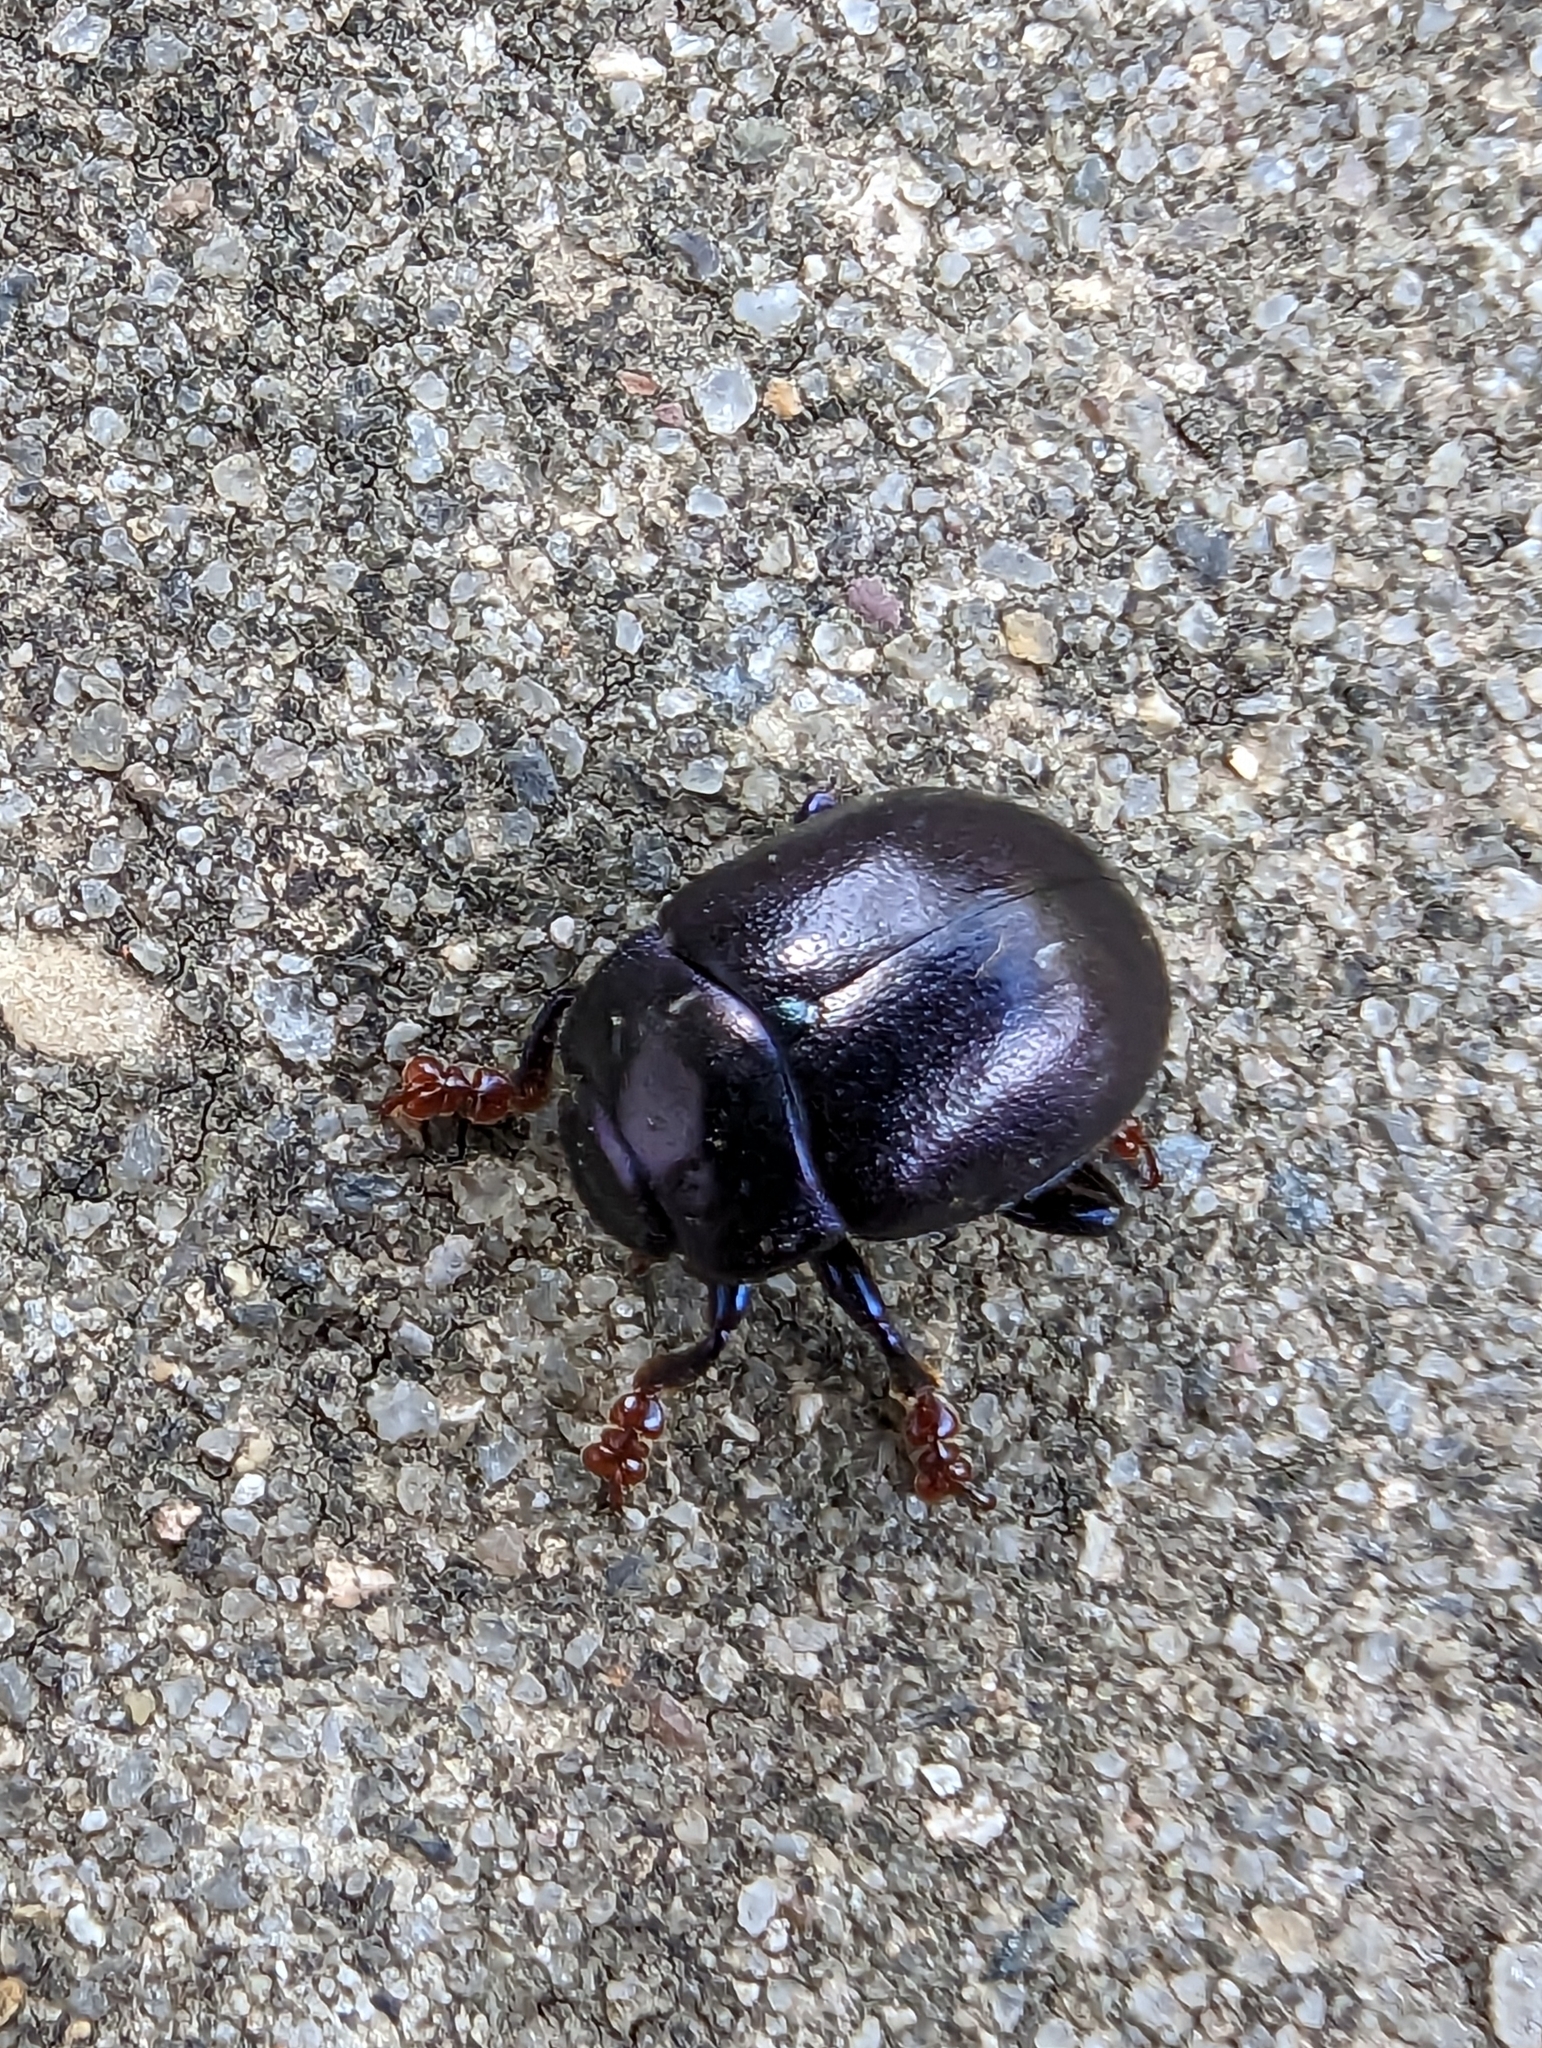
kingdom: Animalia
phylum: Arthropoda
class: Insecta
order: Coleoptera
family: Chrysomelidae
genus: Chrysolina
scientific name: Chrysolina sturmi
